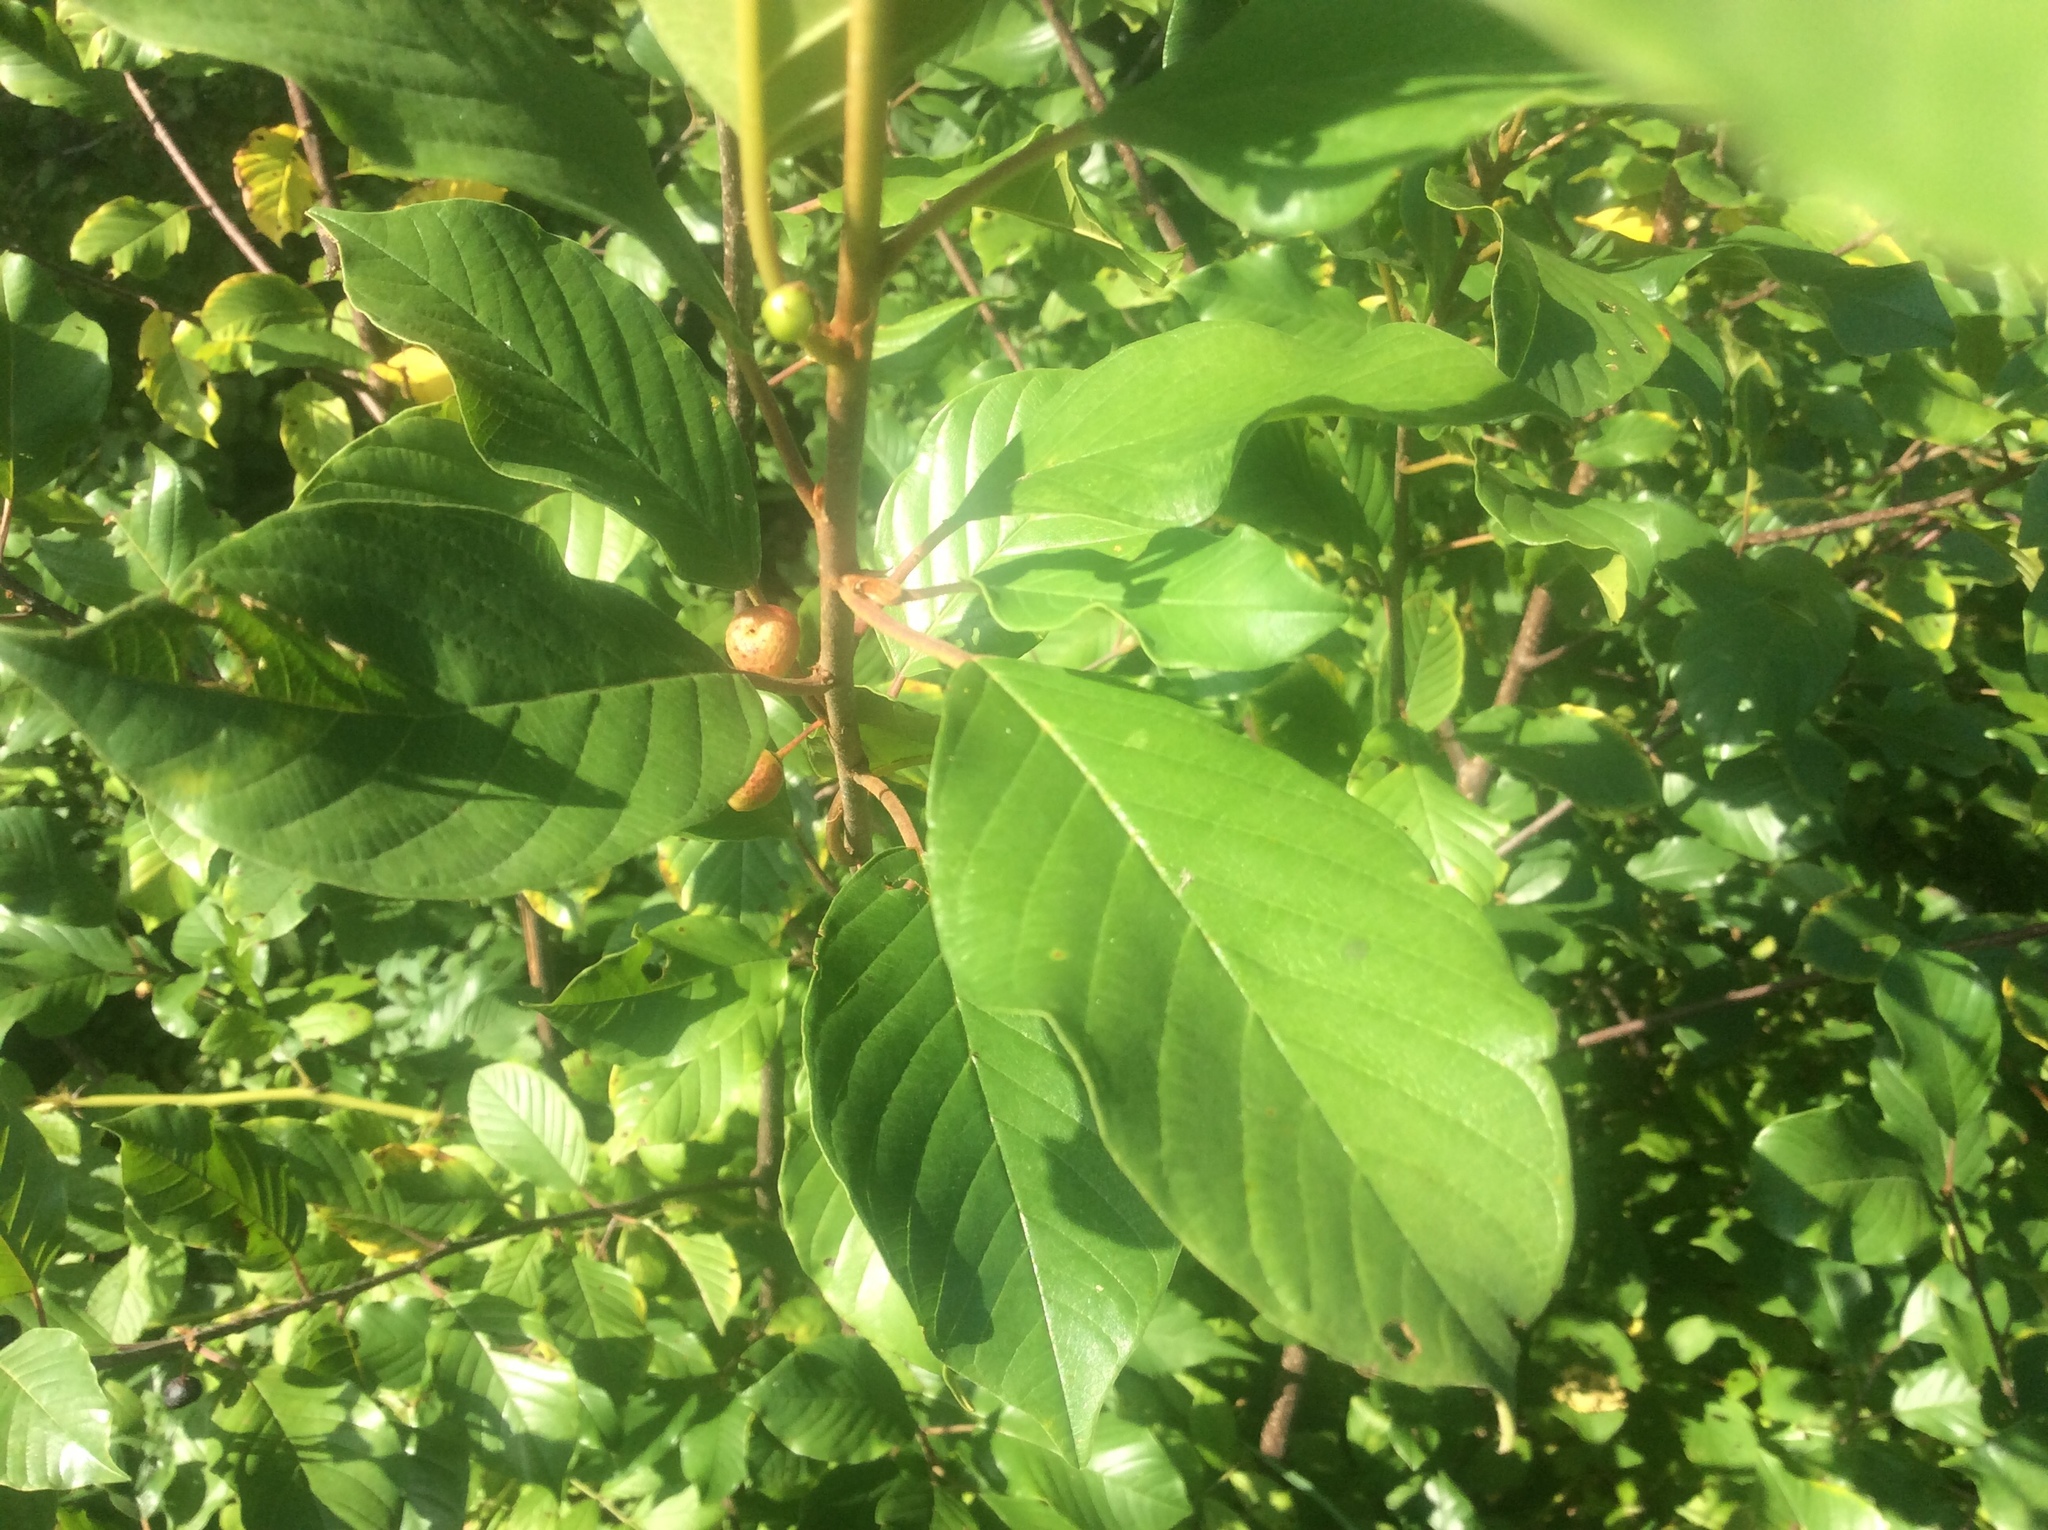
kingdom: Plantae
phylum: Tracheophyta
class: Magnoliopsida
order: Rosales
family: Rhamnaceae
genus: Frangula
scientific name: Frangula alnus
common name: Alder buckthorn
